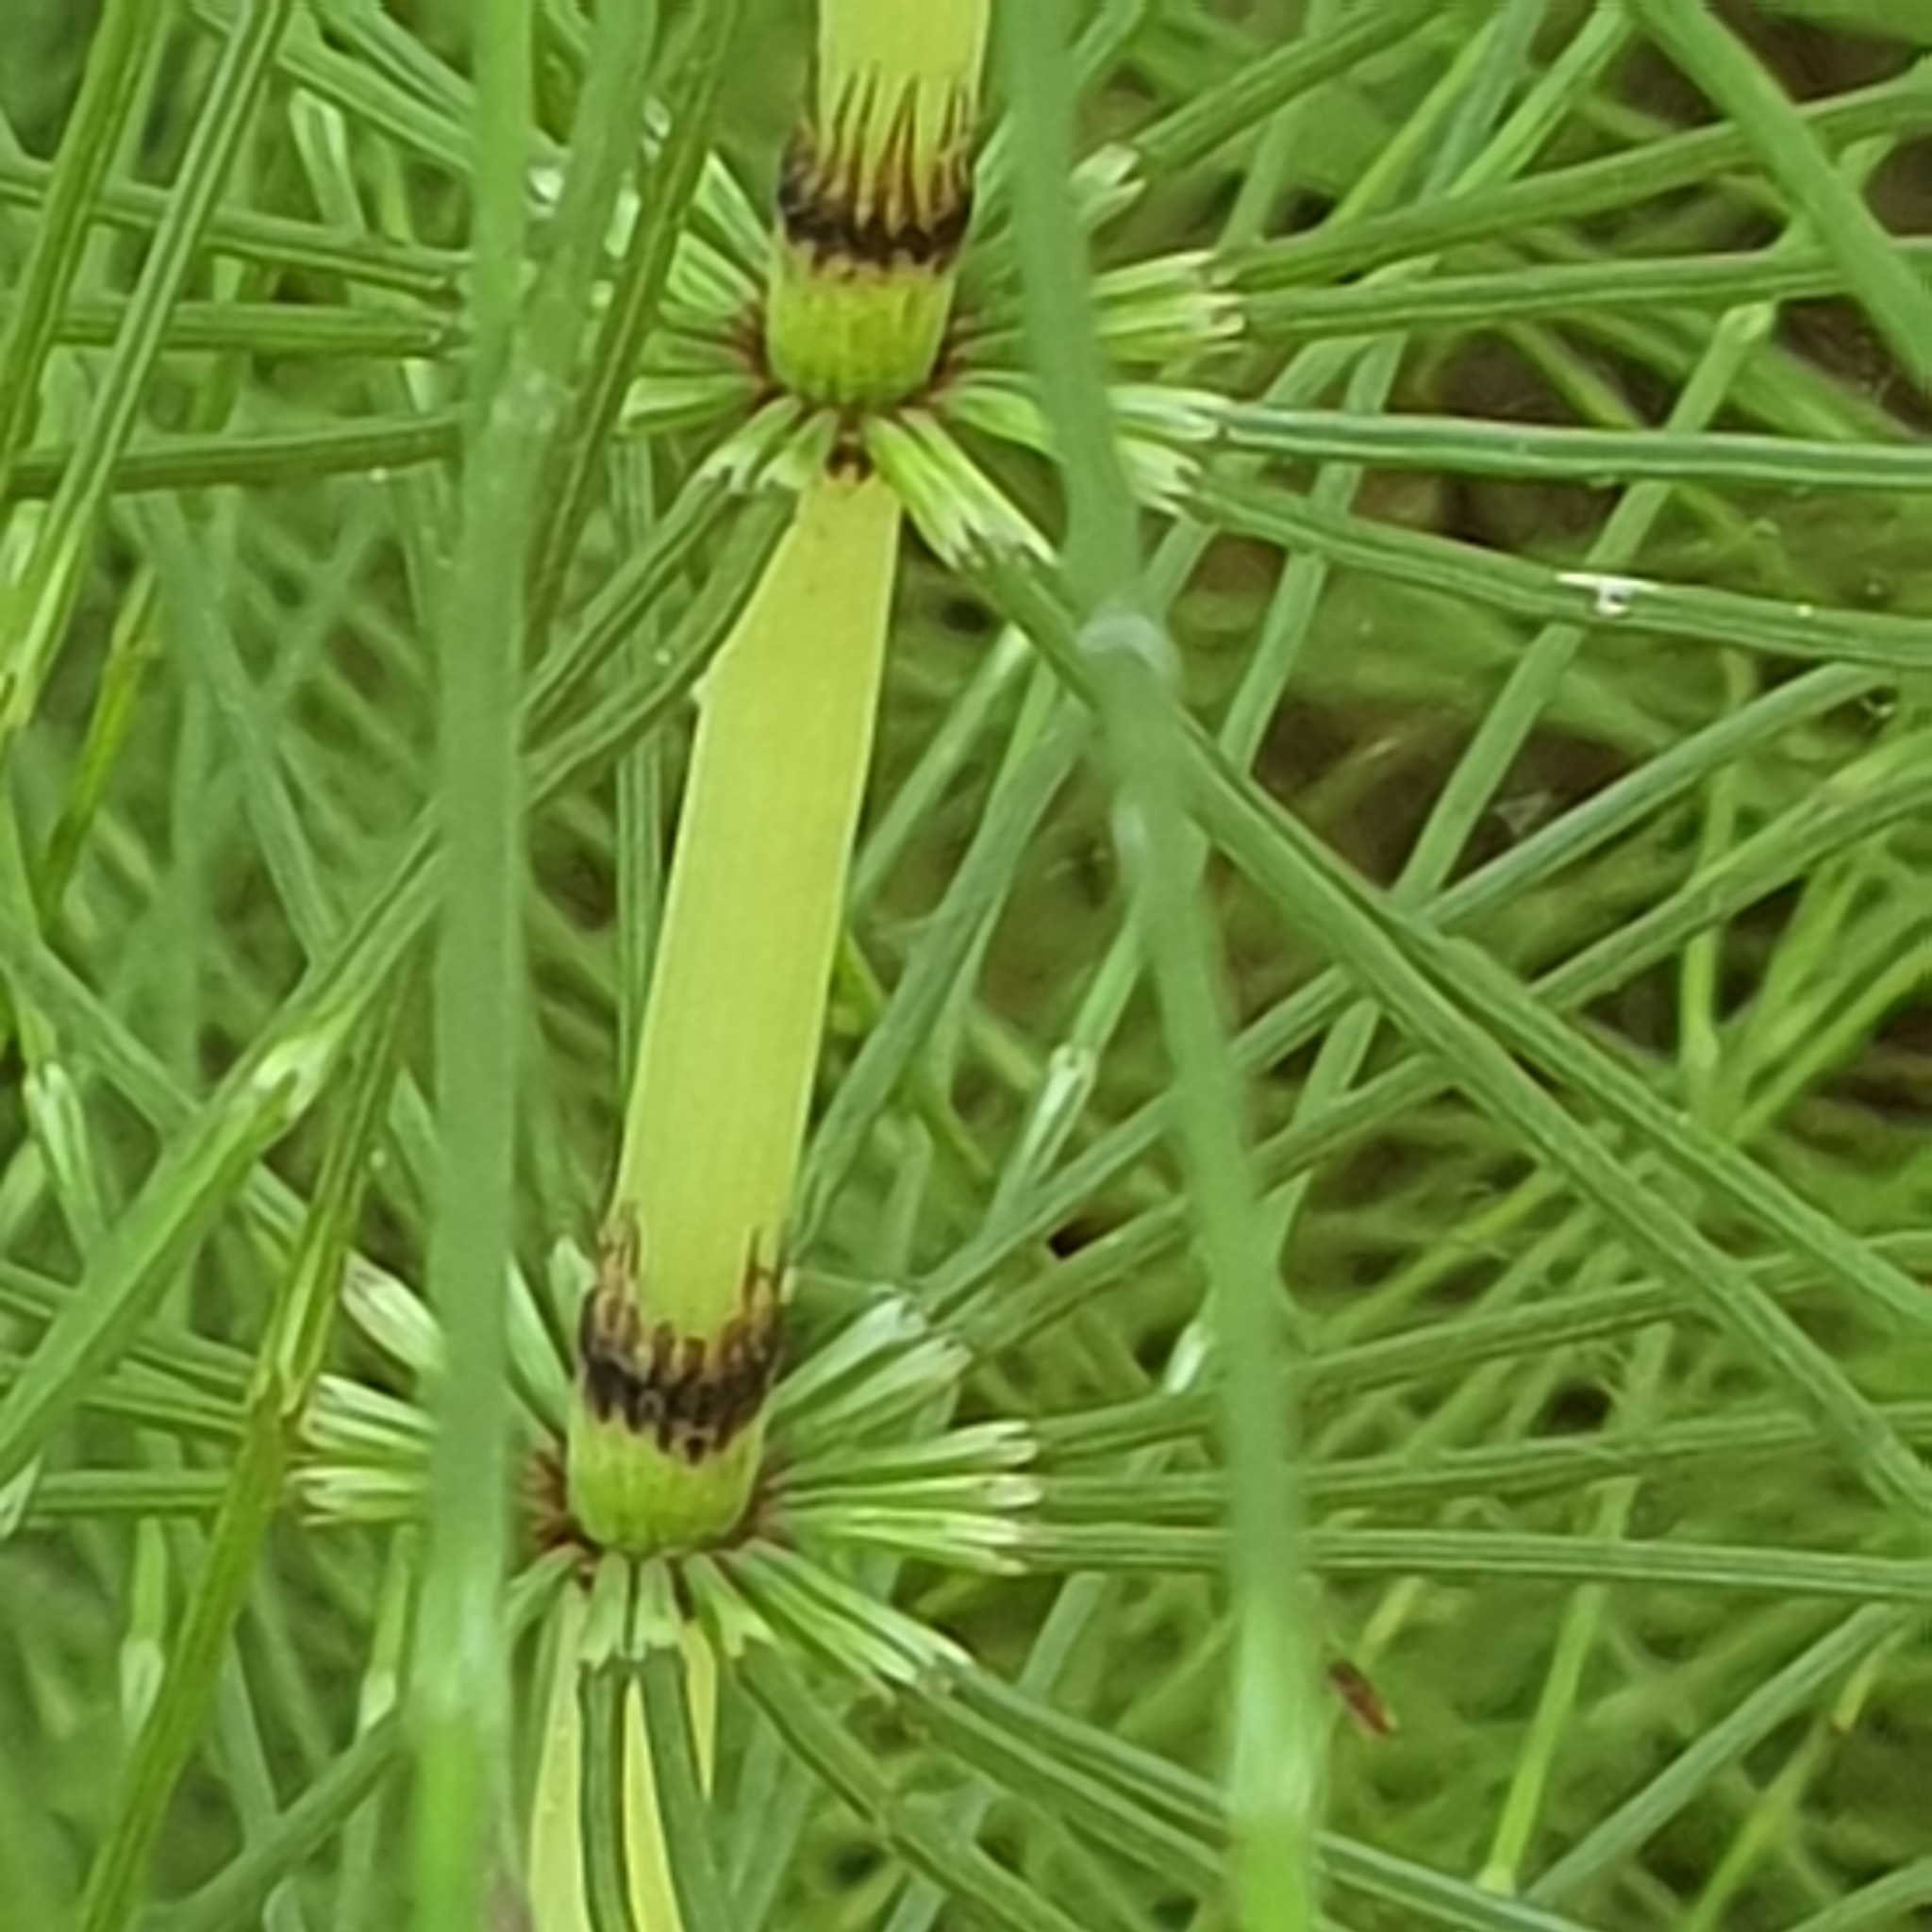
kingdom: Plantae
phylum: Tracheophyta
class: Polypodiopsida
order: Equisetales
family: Equisetaceae
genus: Equisetum
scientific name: Equisetum telmateia
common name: Great horsetail
